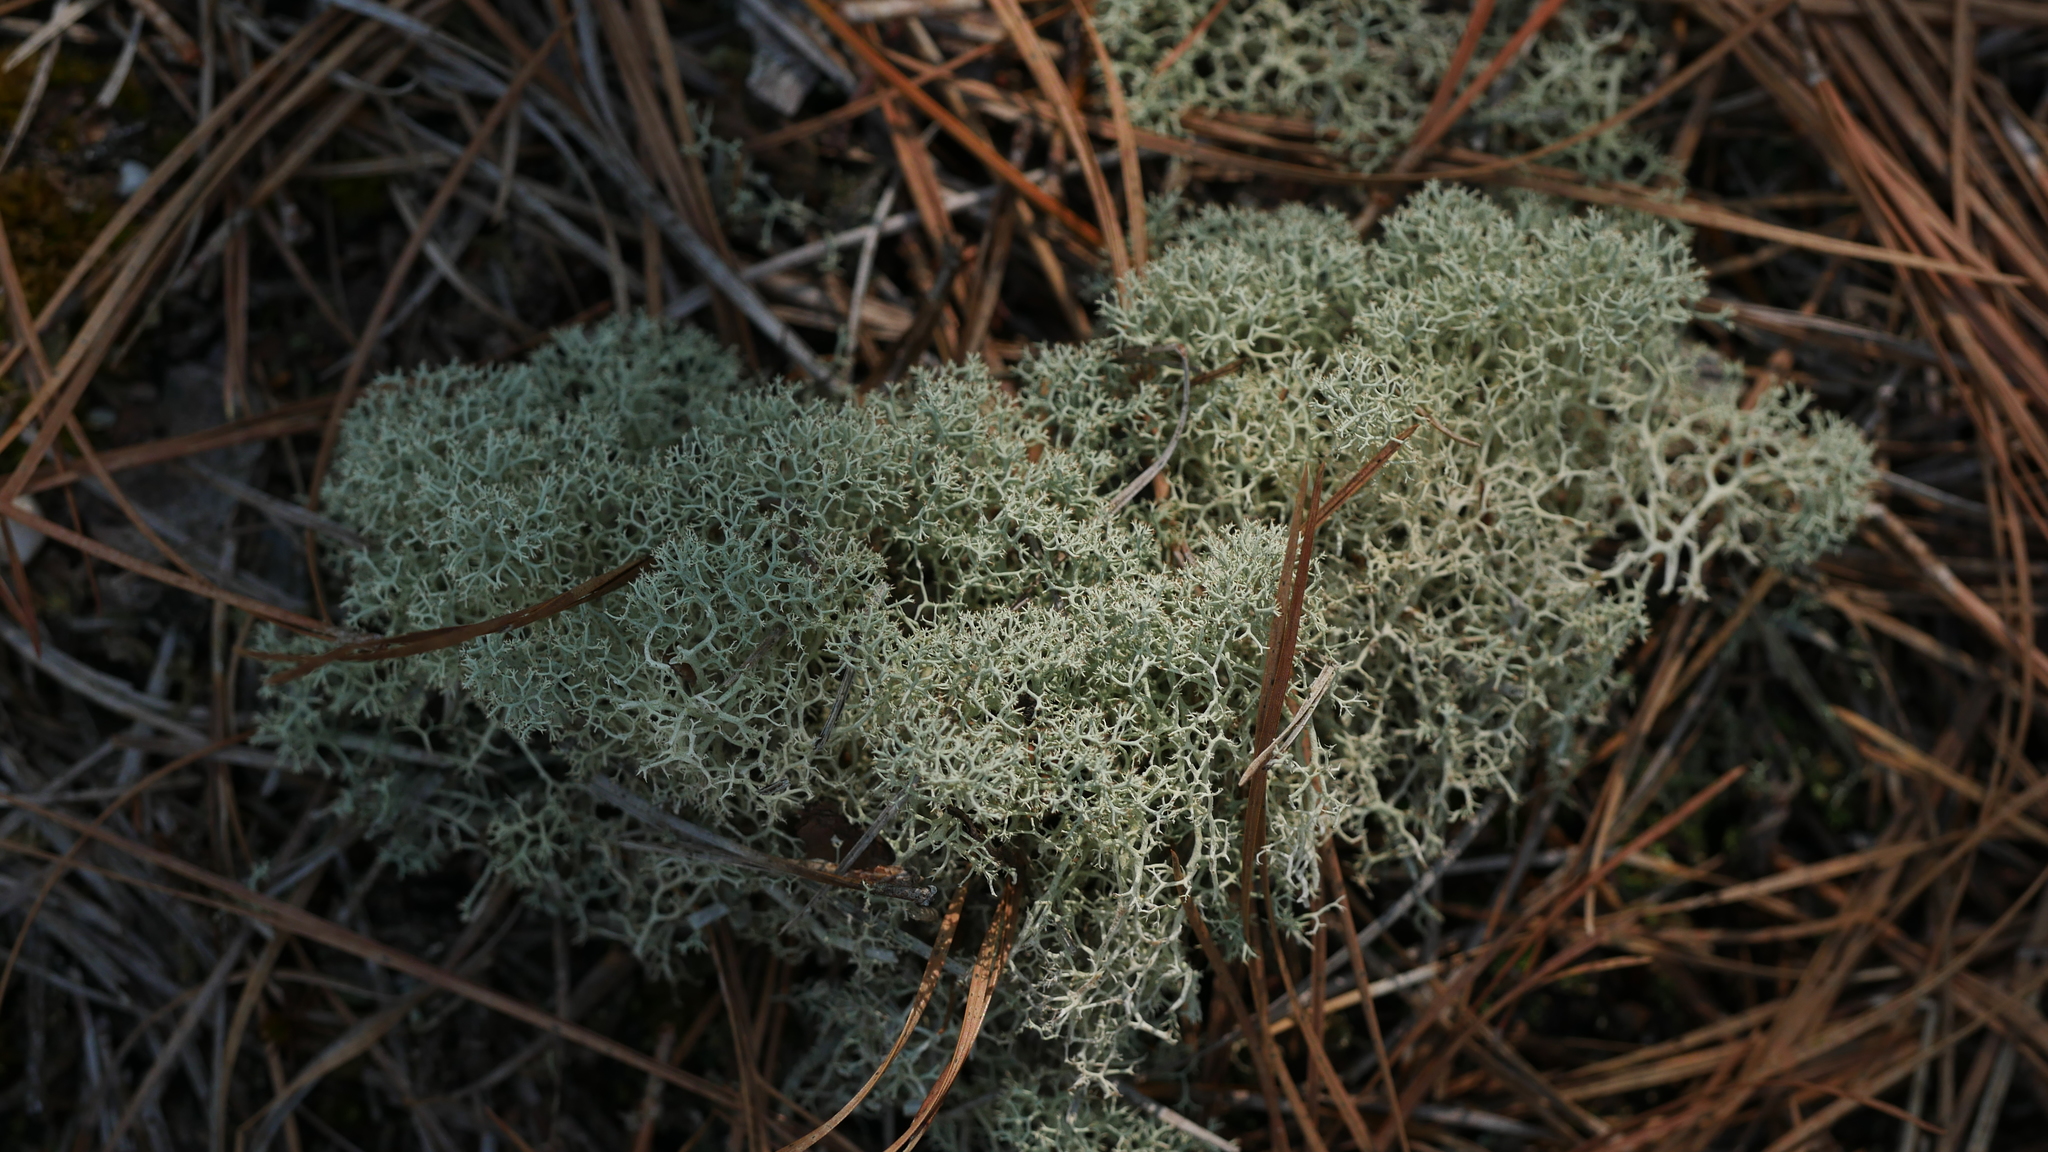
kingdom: Fungi
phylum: Ascomycota
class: Lecanoromycetes
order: Lecanorales
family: Cladoniaceae
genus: Cladonia
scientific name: Cladonia subtenuis
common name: Dixie reindeer lichen
